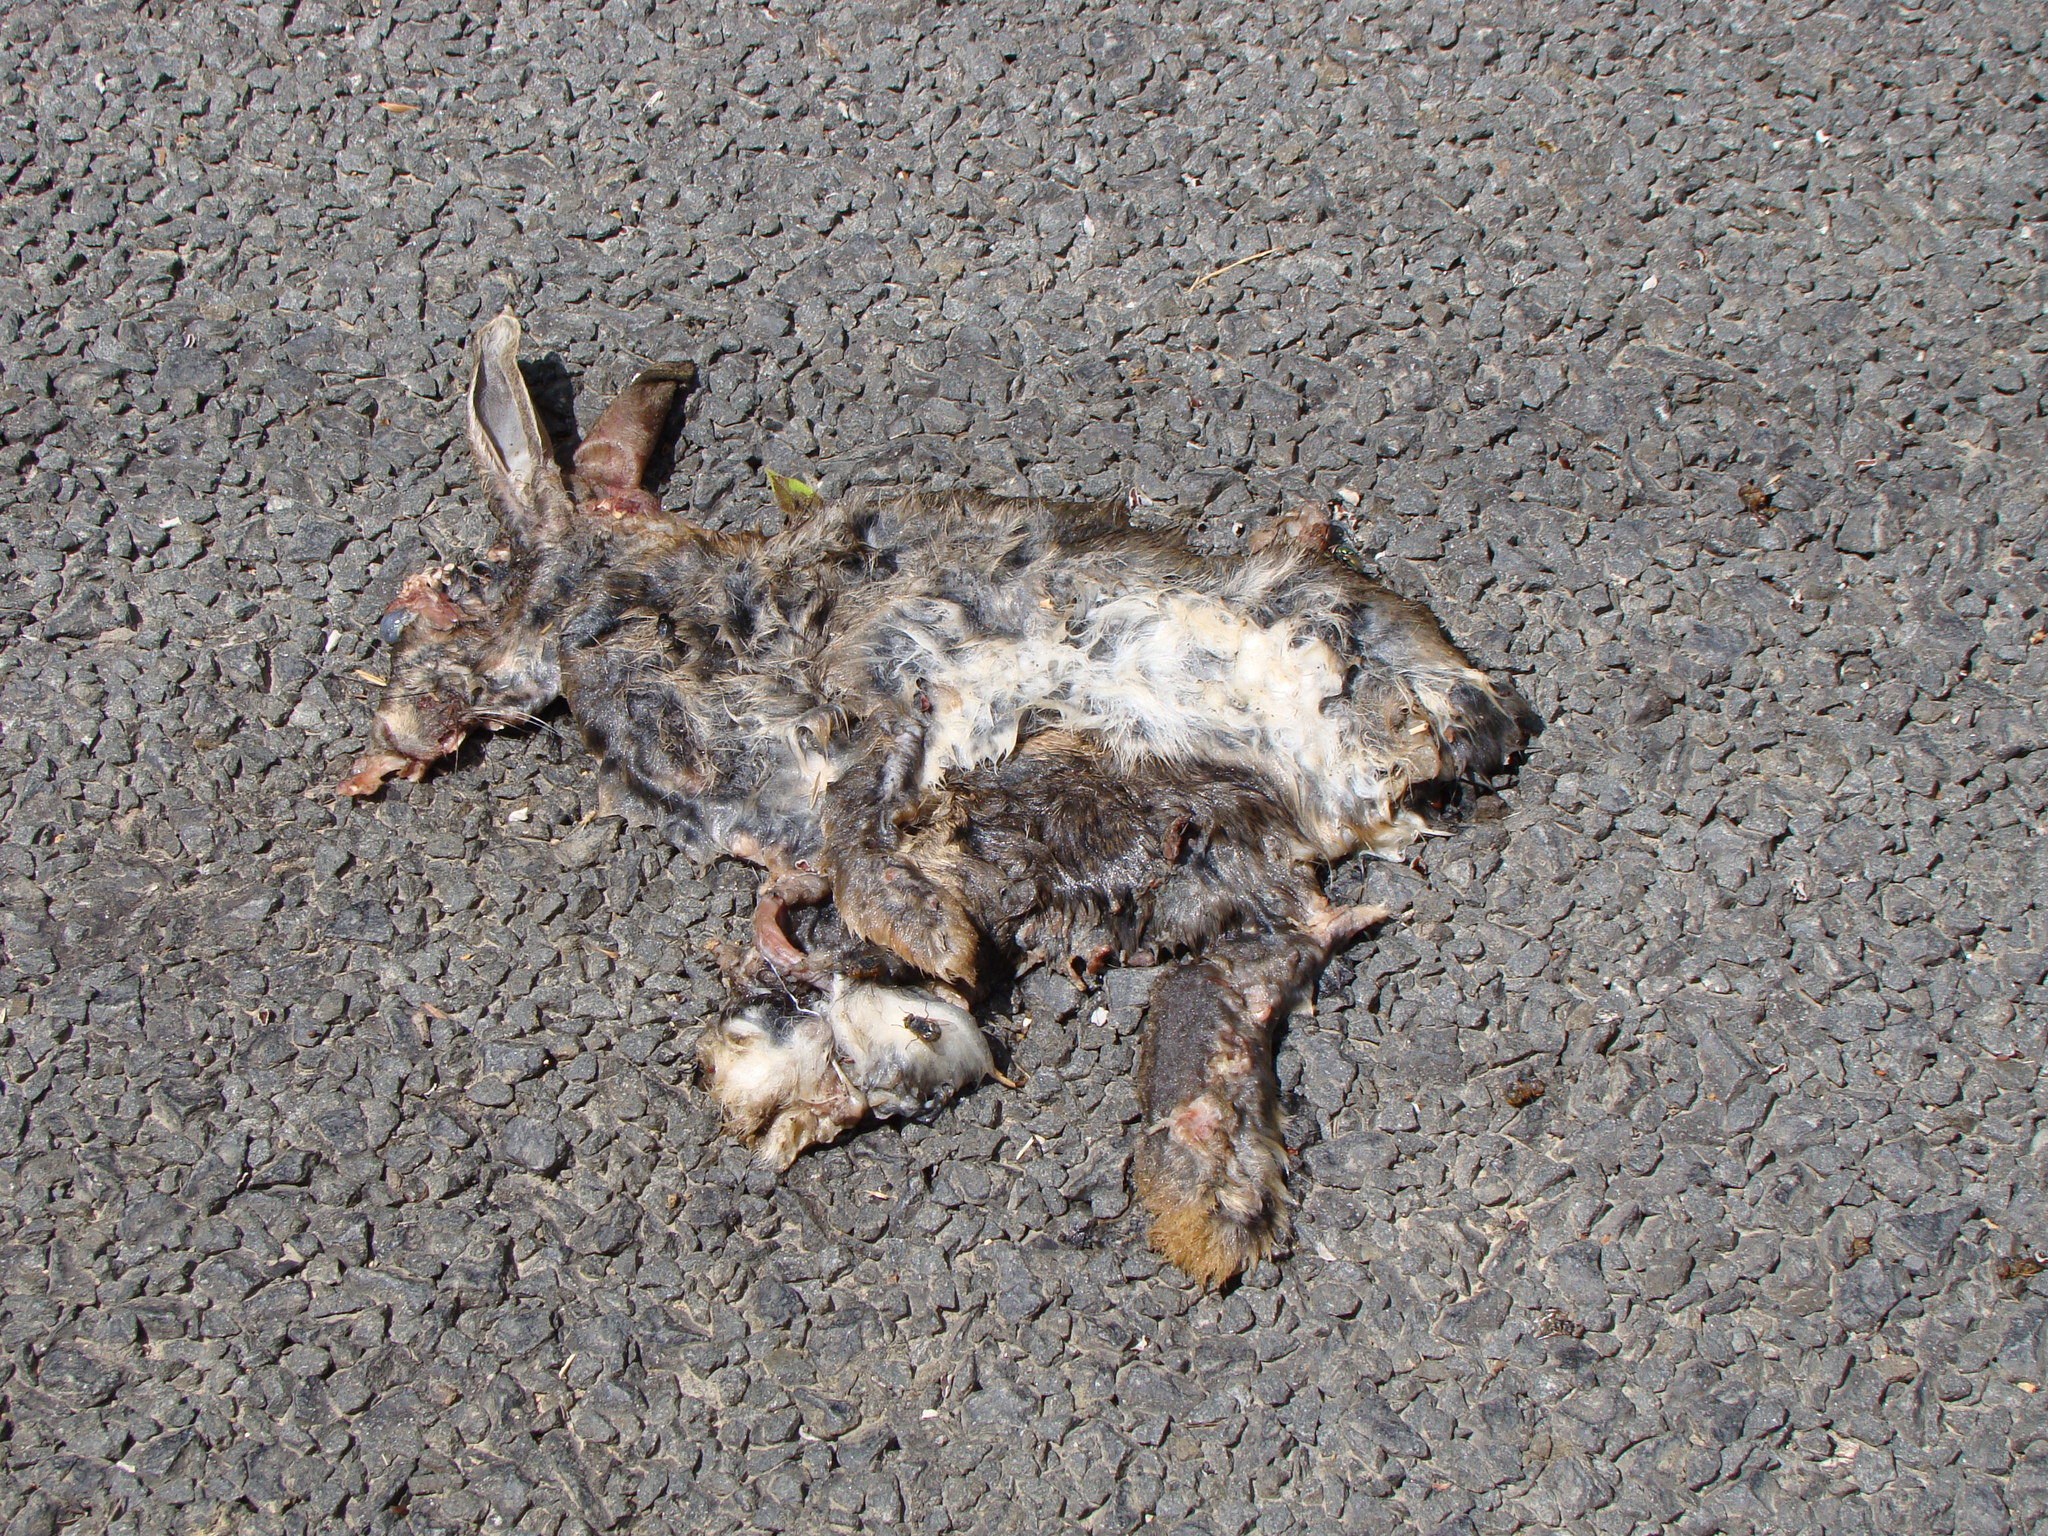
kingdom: Animalia
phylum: Chordata
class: Mammalia
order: Lagomorpha
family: Leporidae
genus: Oryctolagus
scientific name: Oryctolagus cuniculus
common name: European rabbit
